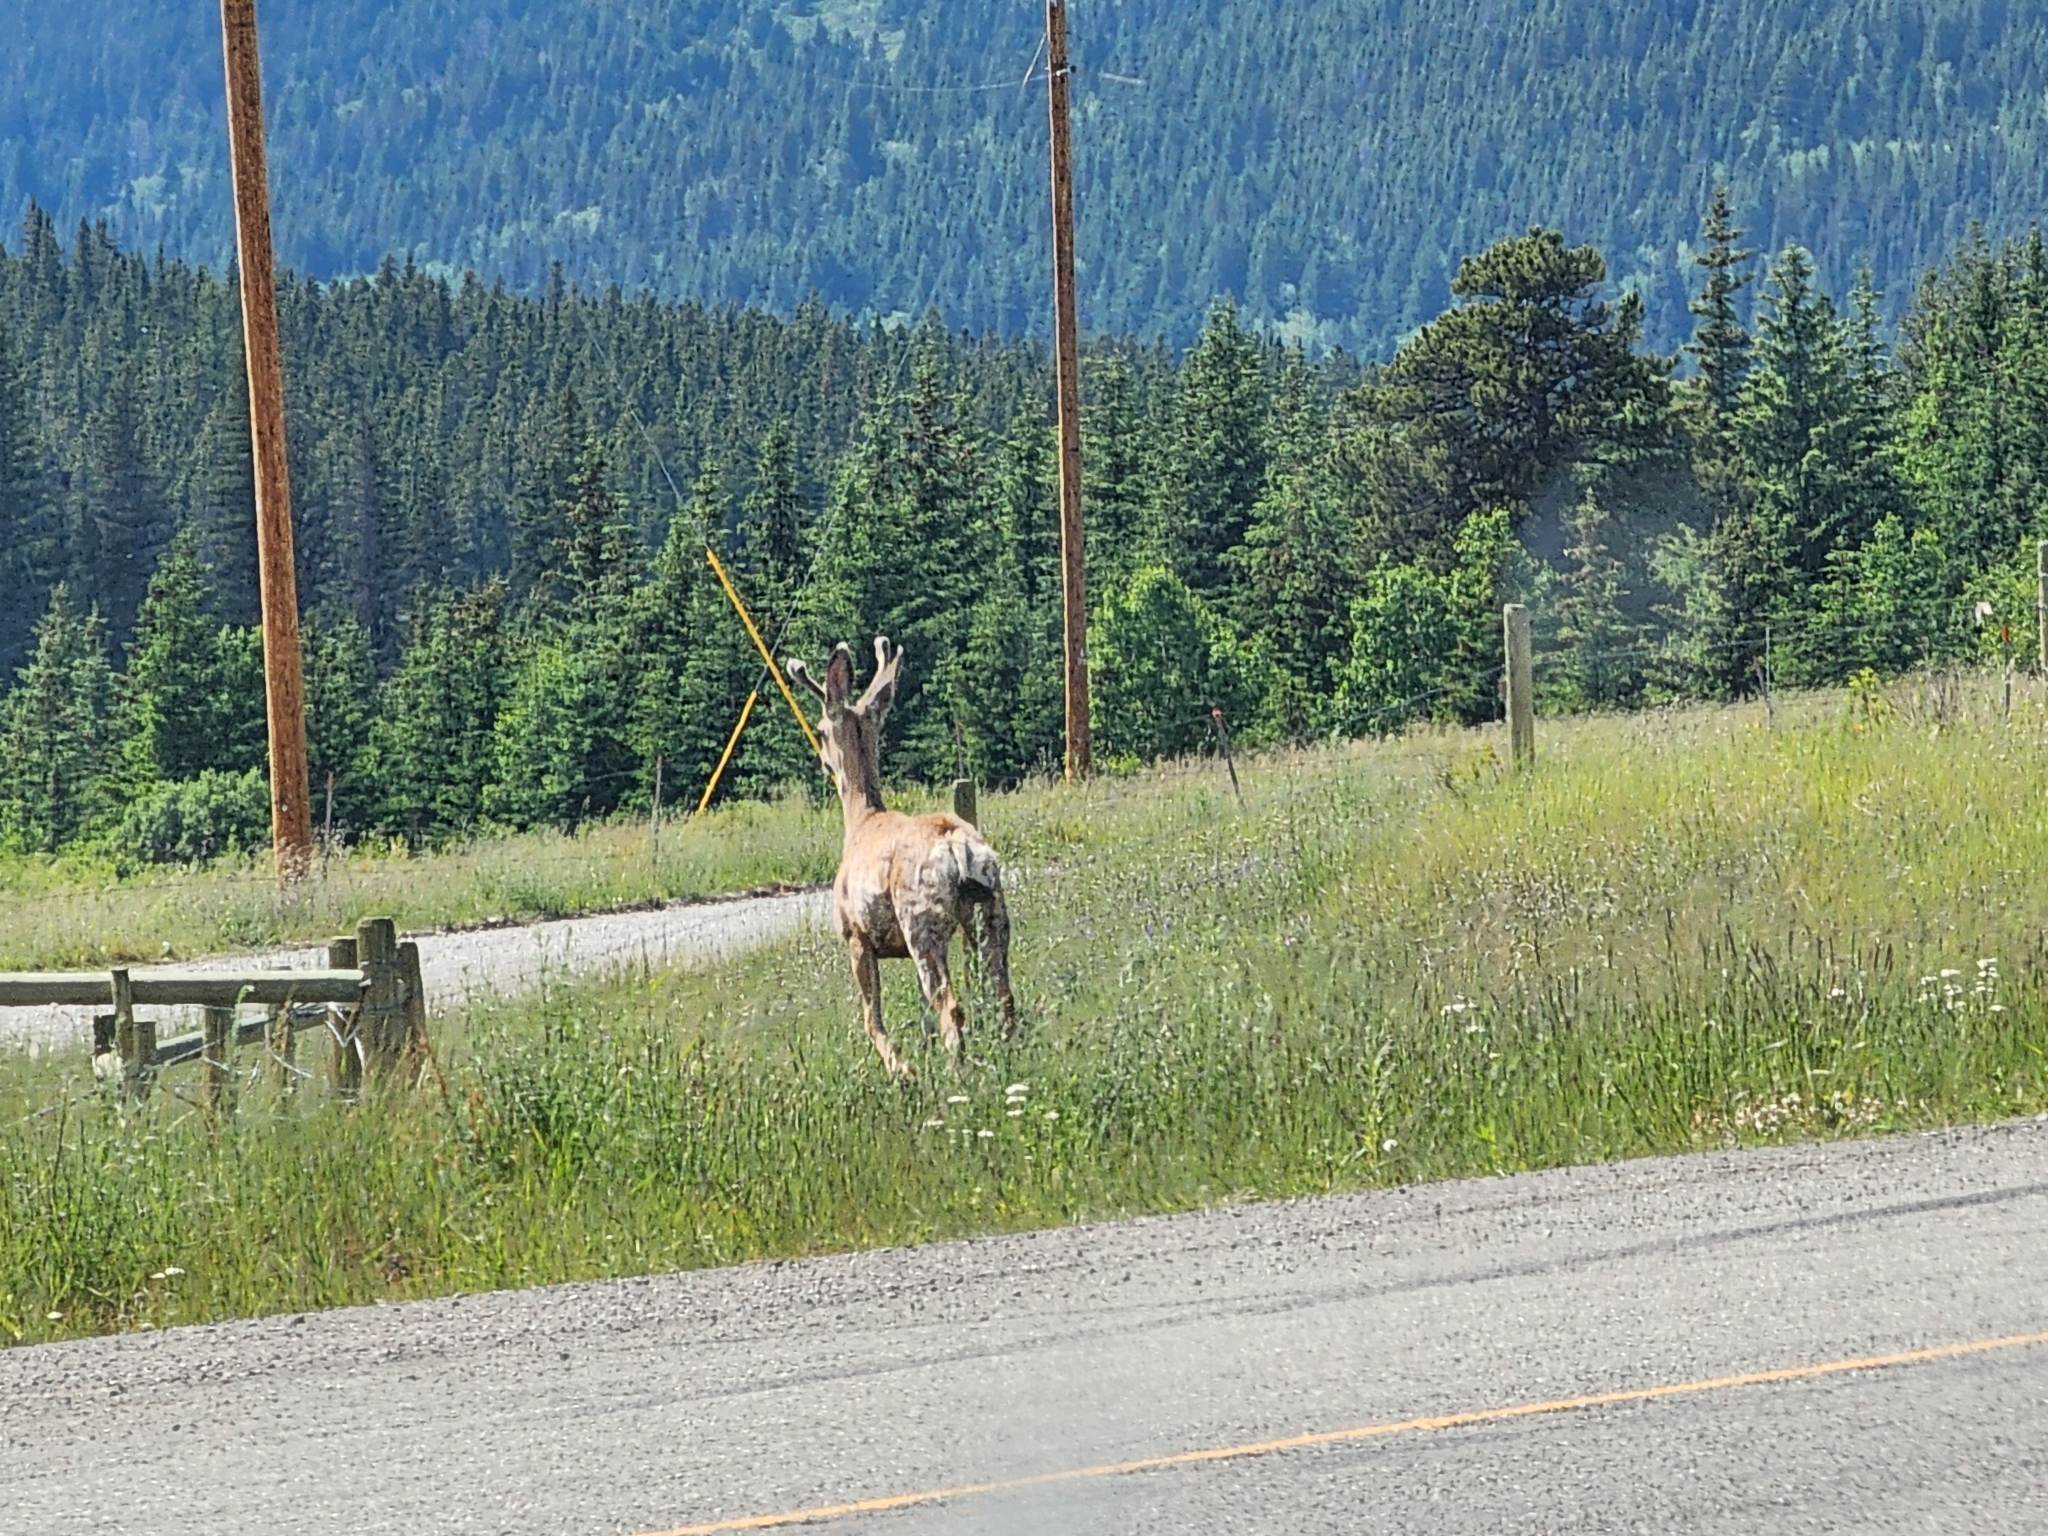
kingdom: Animalia
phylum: Chordata
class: Mammalia
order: Artiodactyla
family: Cervidae
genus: Odocoileus
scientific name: Odocoileus hemionus
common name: Mule deer
